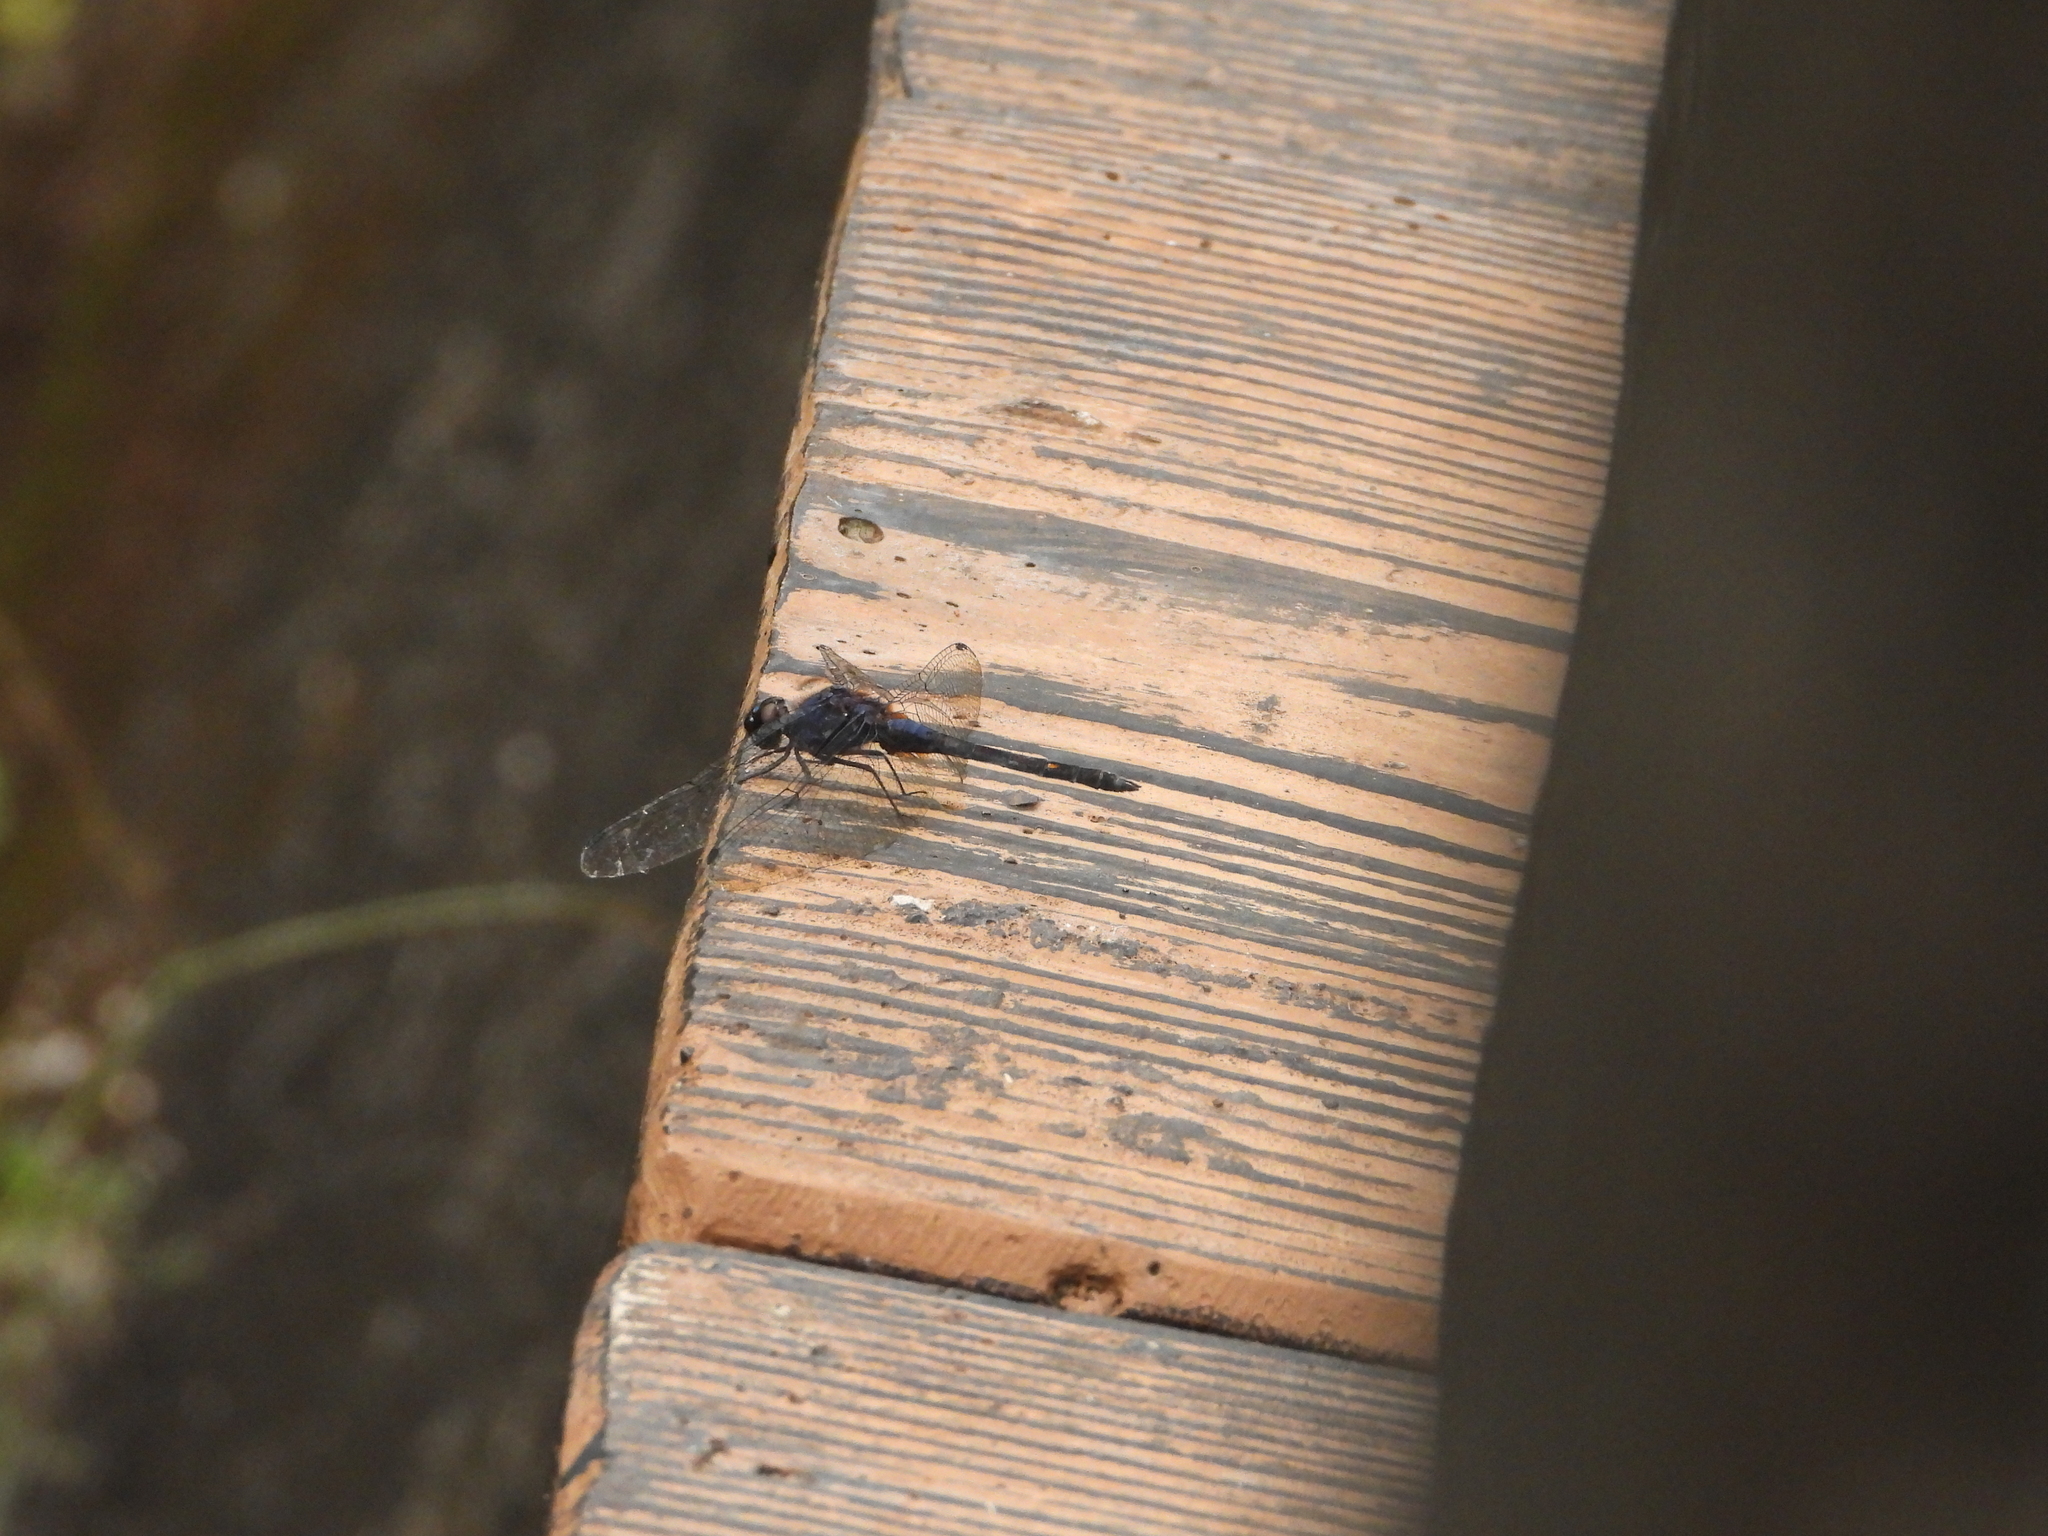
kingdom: Animalia
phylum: Arthropoda
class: Insecta
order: Odonata
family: Libellulidae
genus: Trithemis
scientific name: Trithemis festiva
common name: Indigo dropwing
